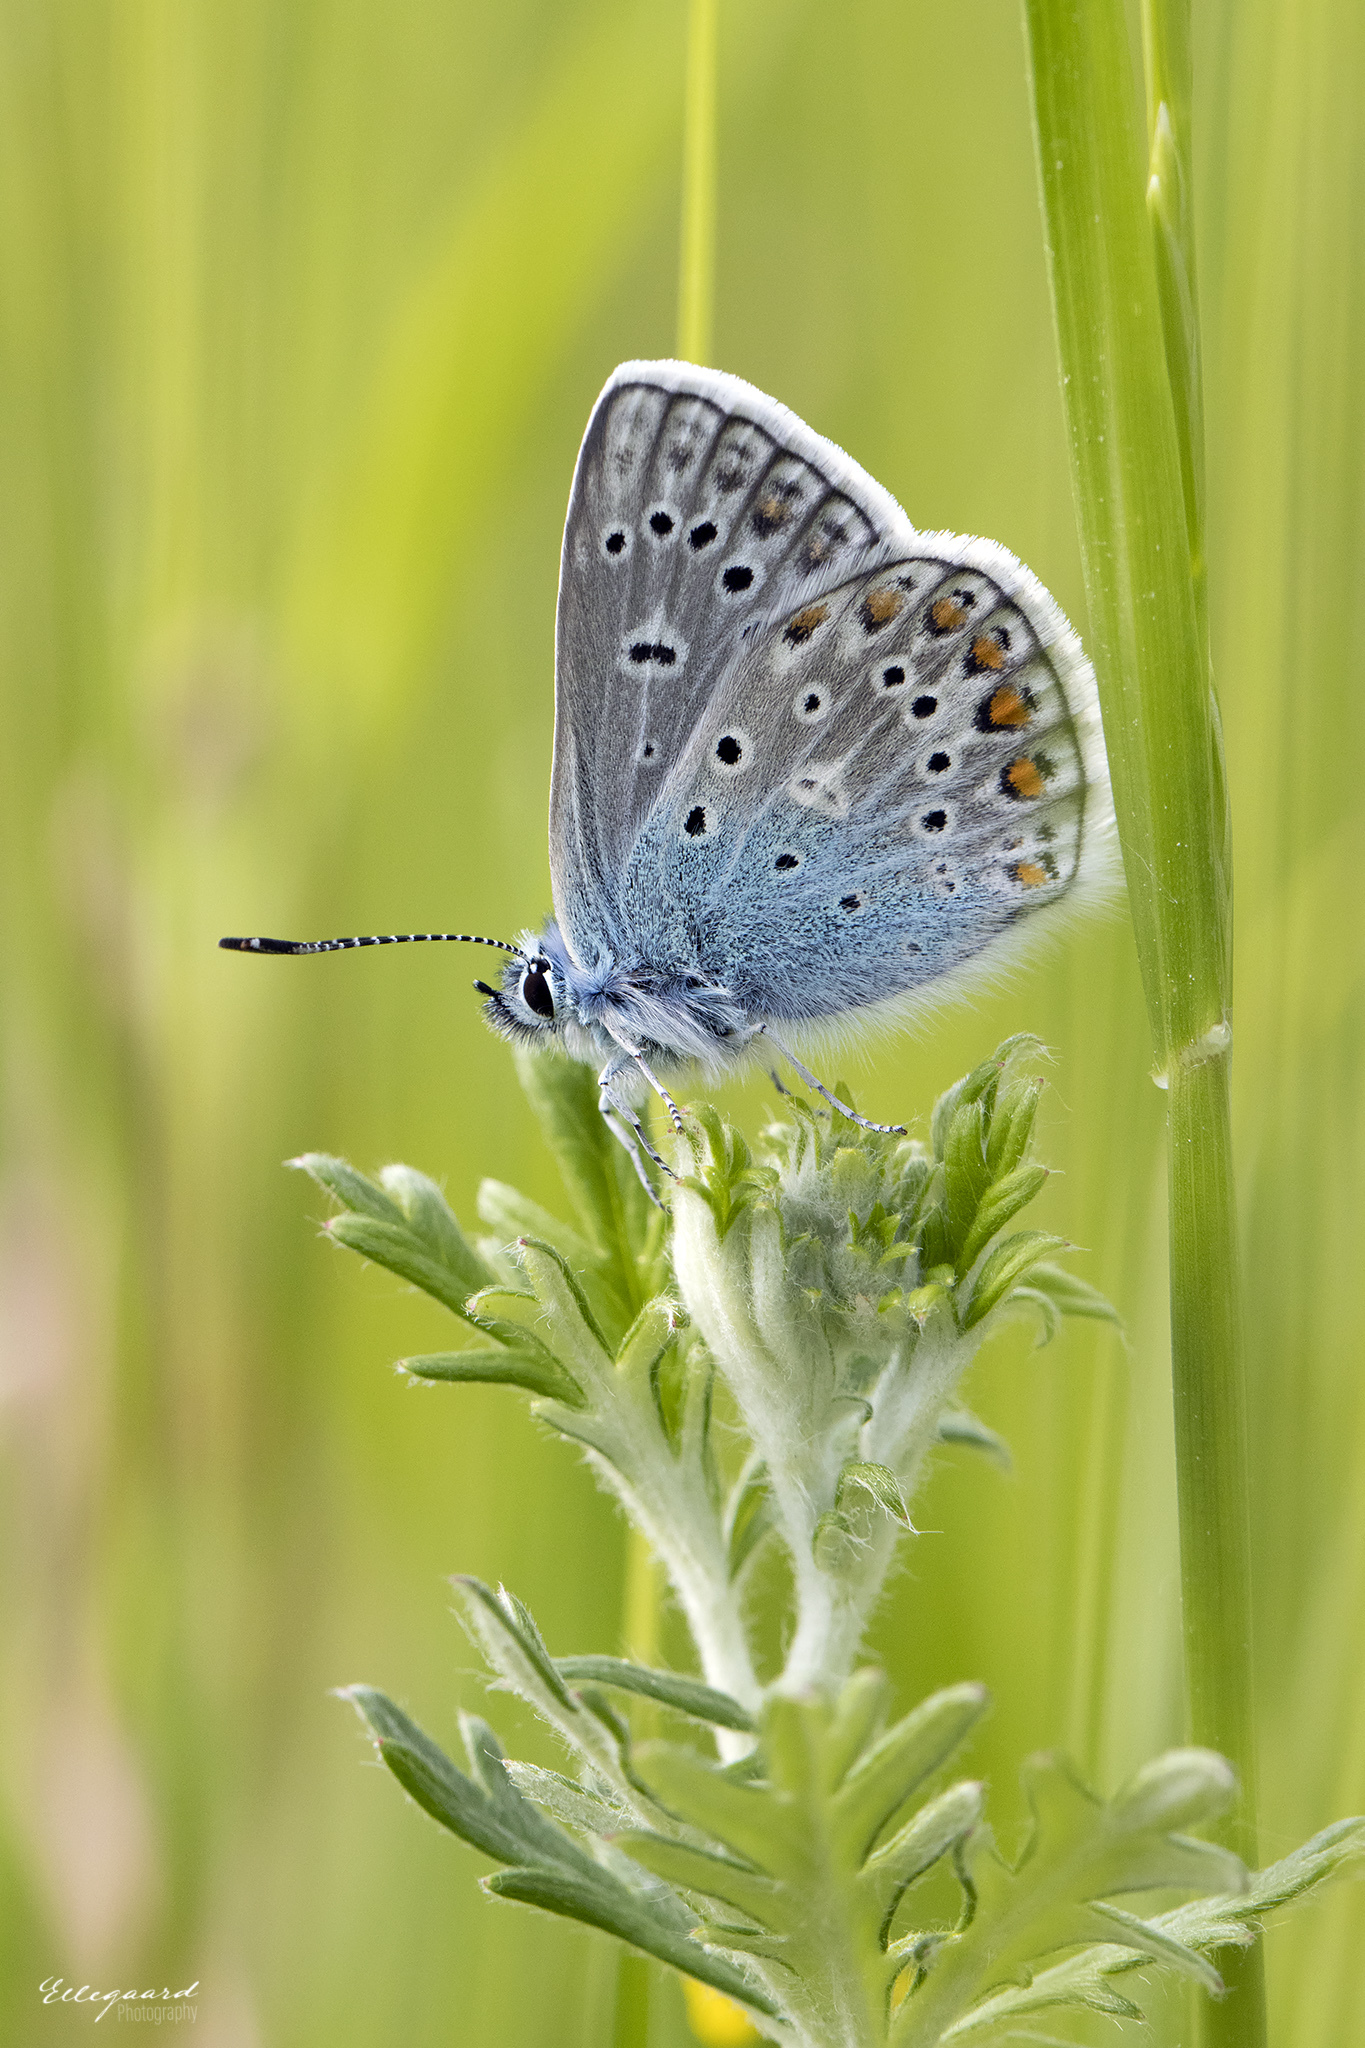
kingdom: Animalia
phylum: Arthropoda
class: Insecta
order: Lepidoptera
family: Lycaenidae
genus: Polyommatus
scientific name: Polyommatus icarus
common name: Common blue
